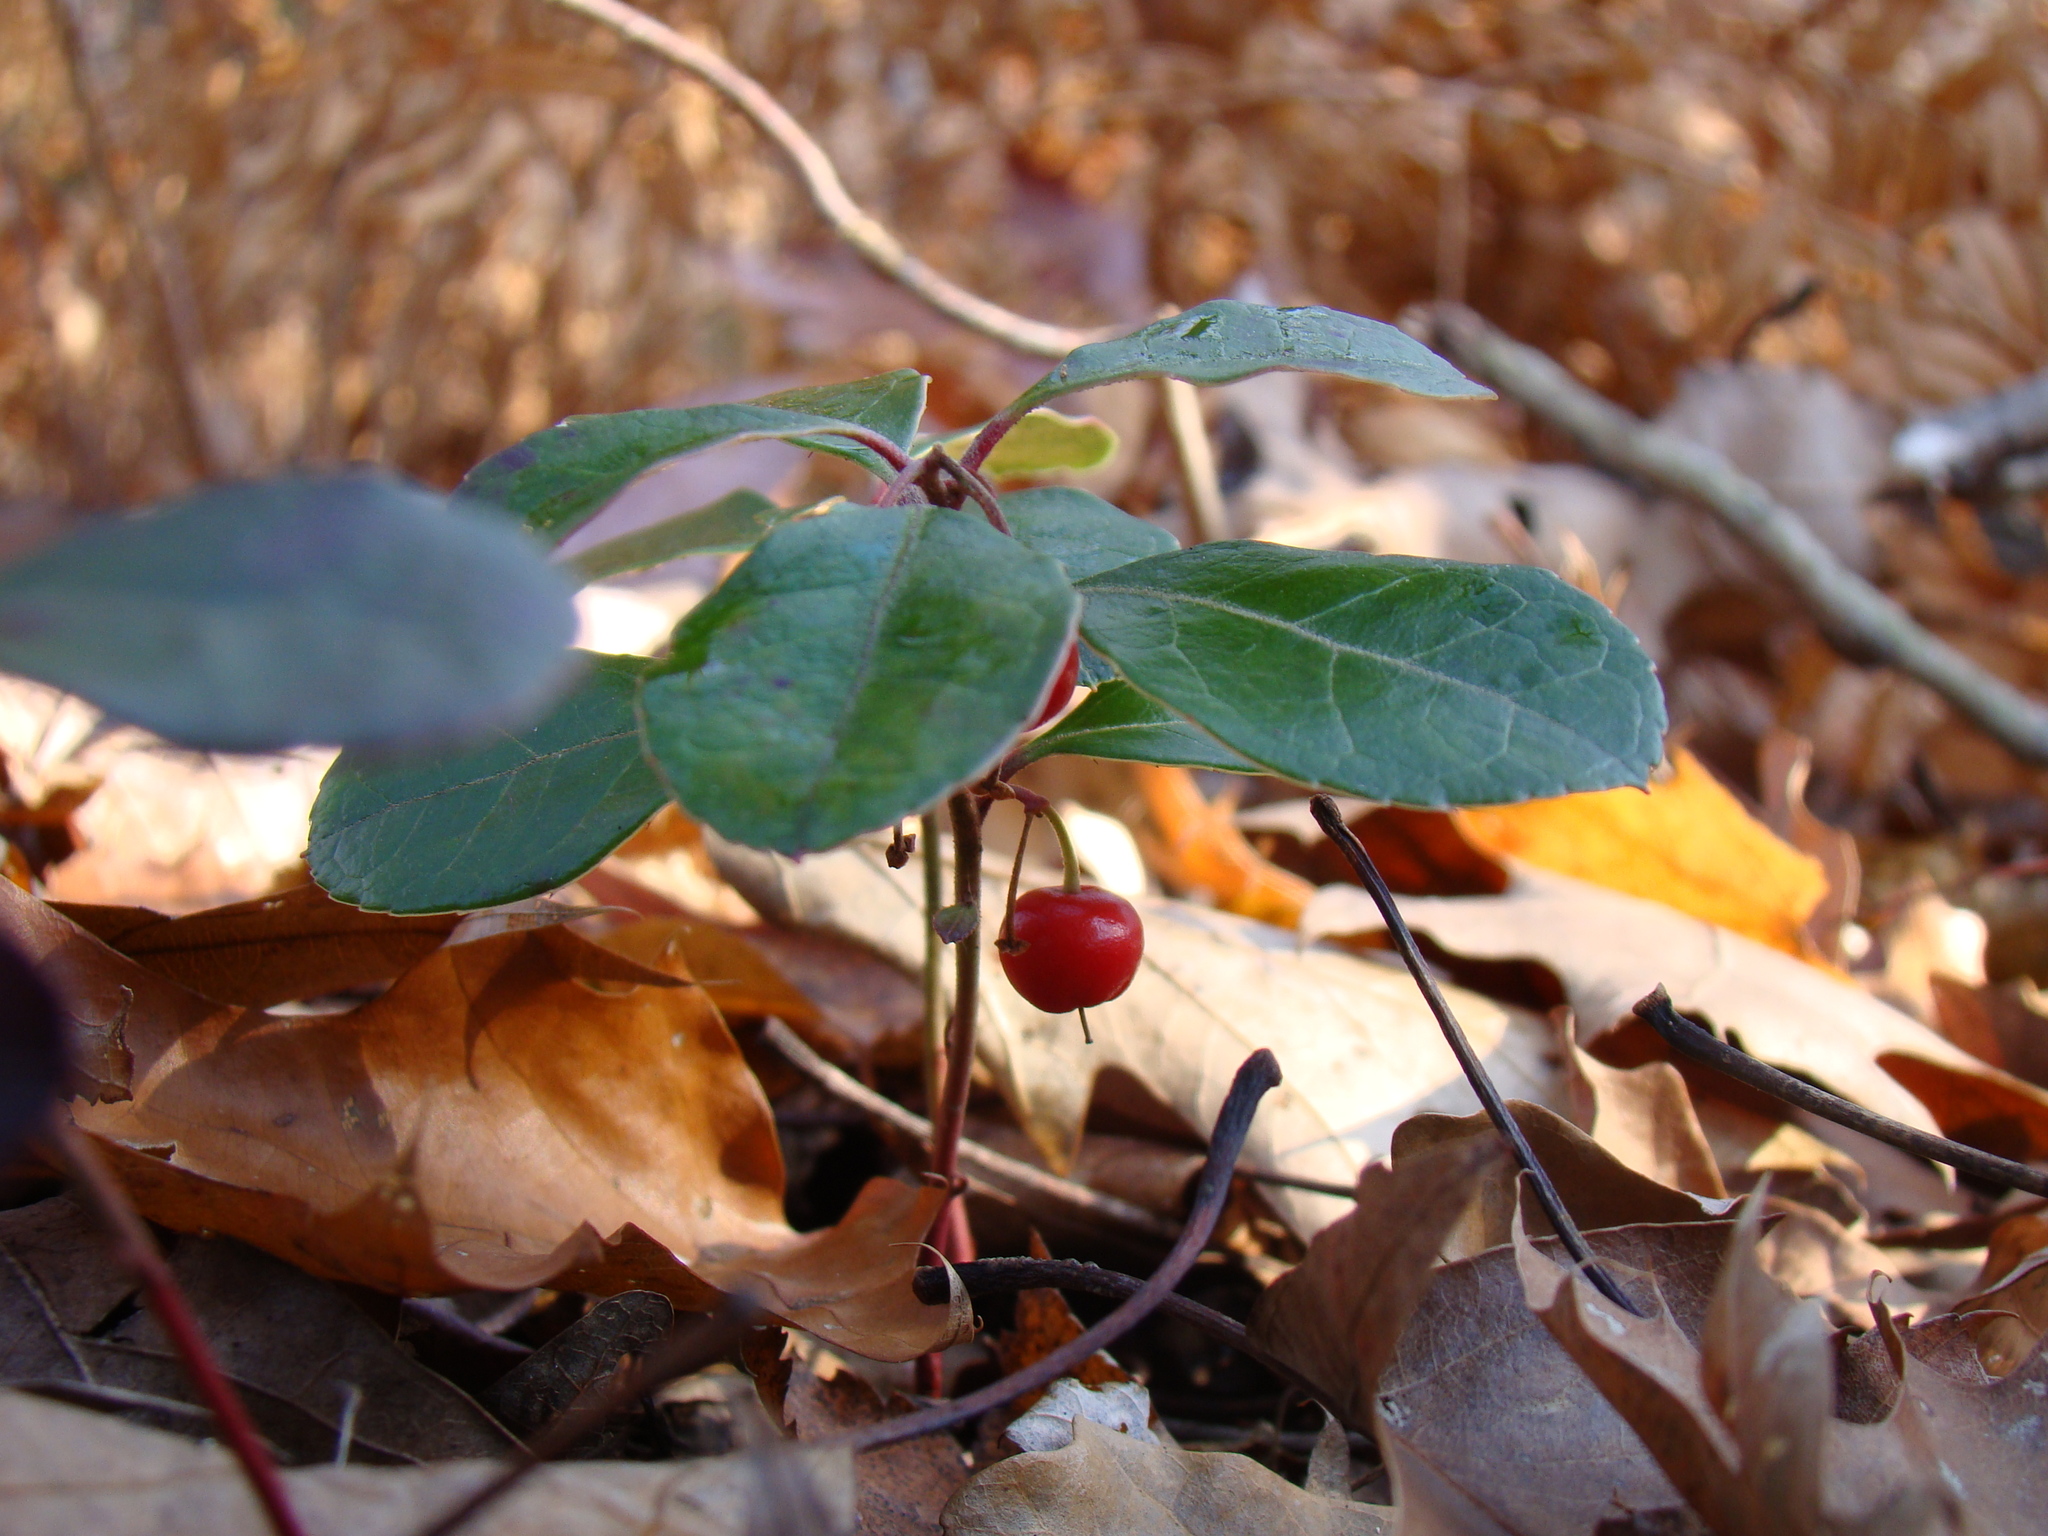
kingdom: Plantae
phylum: Tracheophyta
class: Magnoliopsida
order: Ericales
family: Ericaceae
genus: Gaultheria
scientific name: Gaultheria procumbens
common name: Checkerberry
